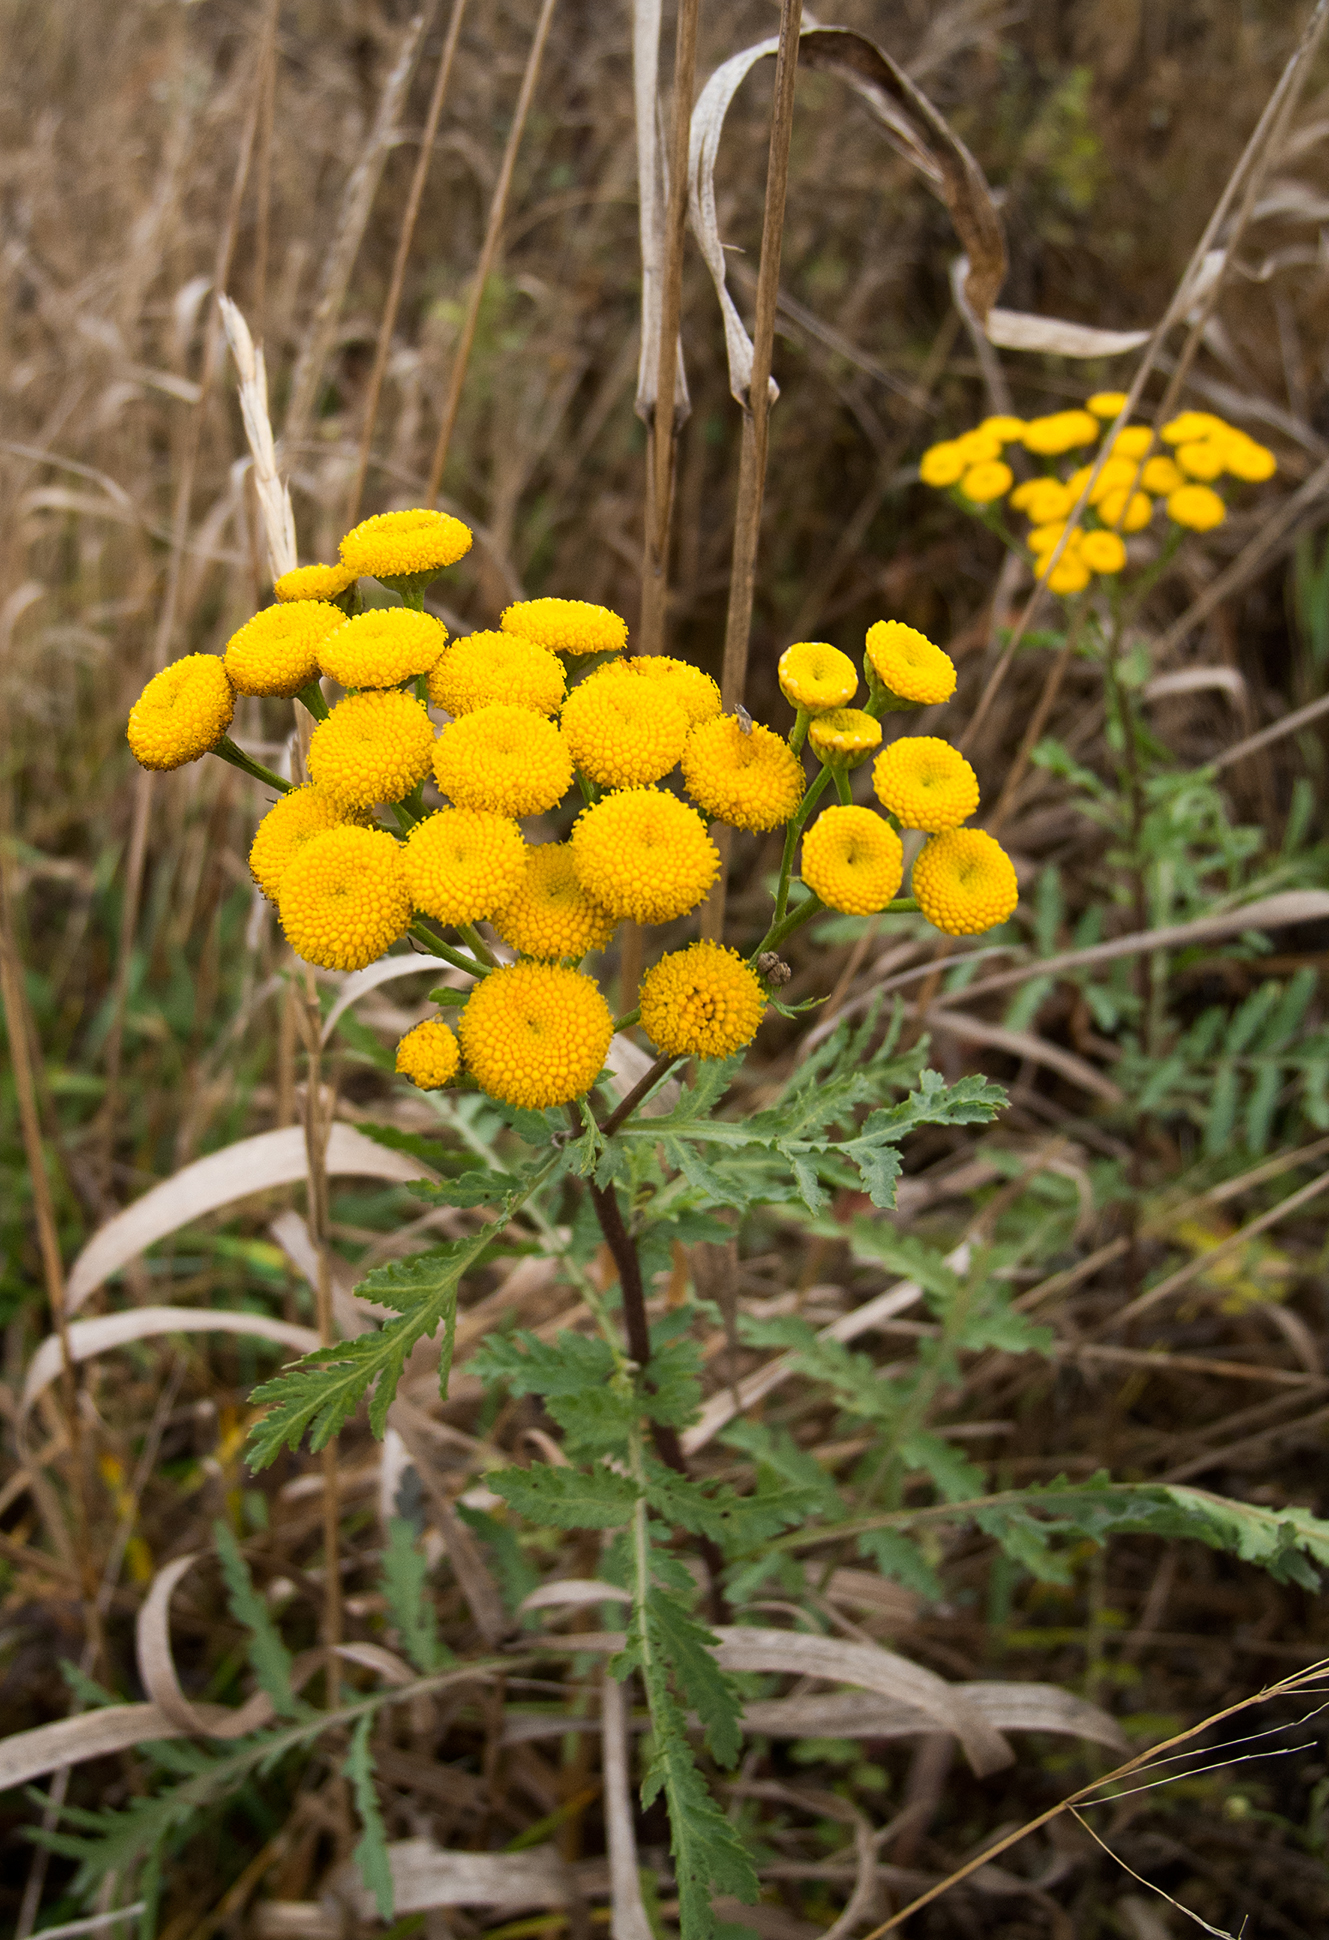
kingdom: Plantae
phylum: Tracheophyta
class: Magnoliopsida
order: Asterales
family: Asteraceae
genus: Tanacetum
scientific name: Tanacetum vulgare
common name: Common tansy
